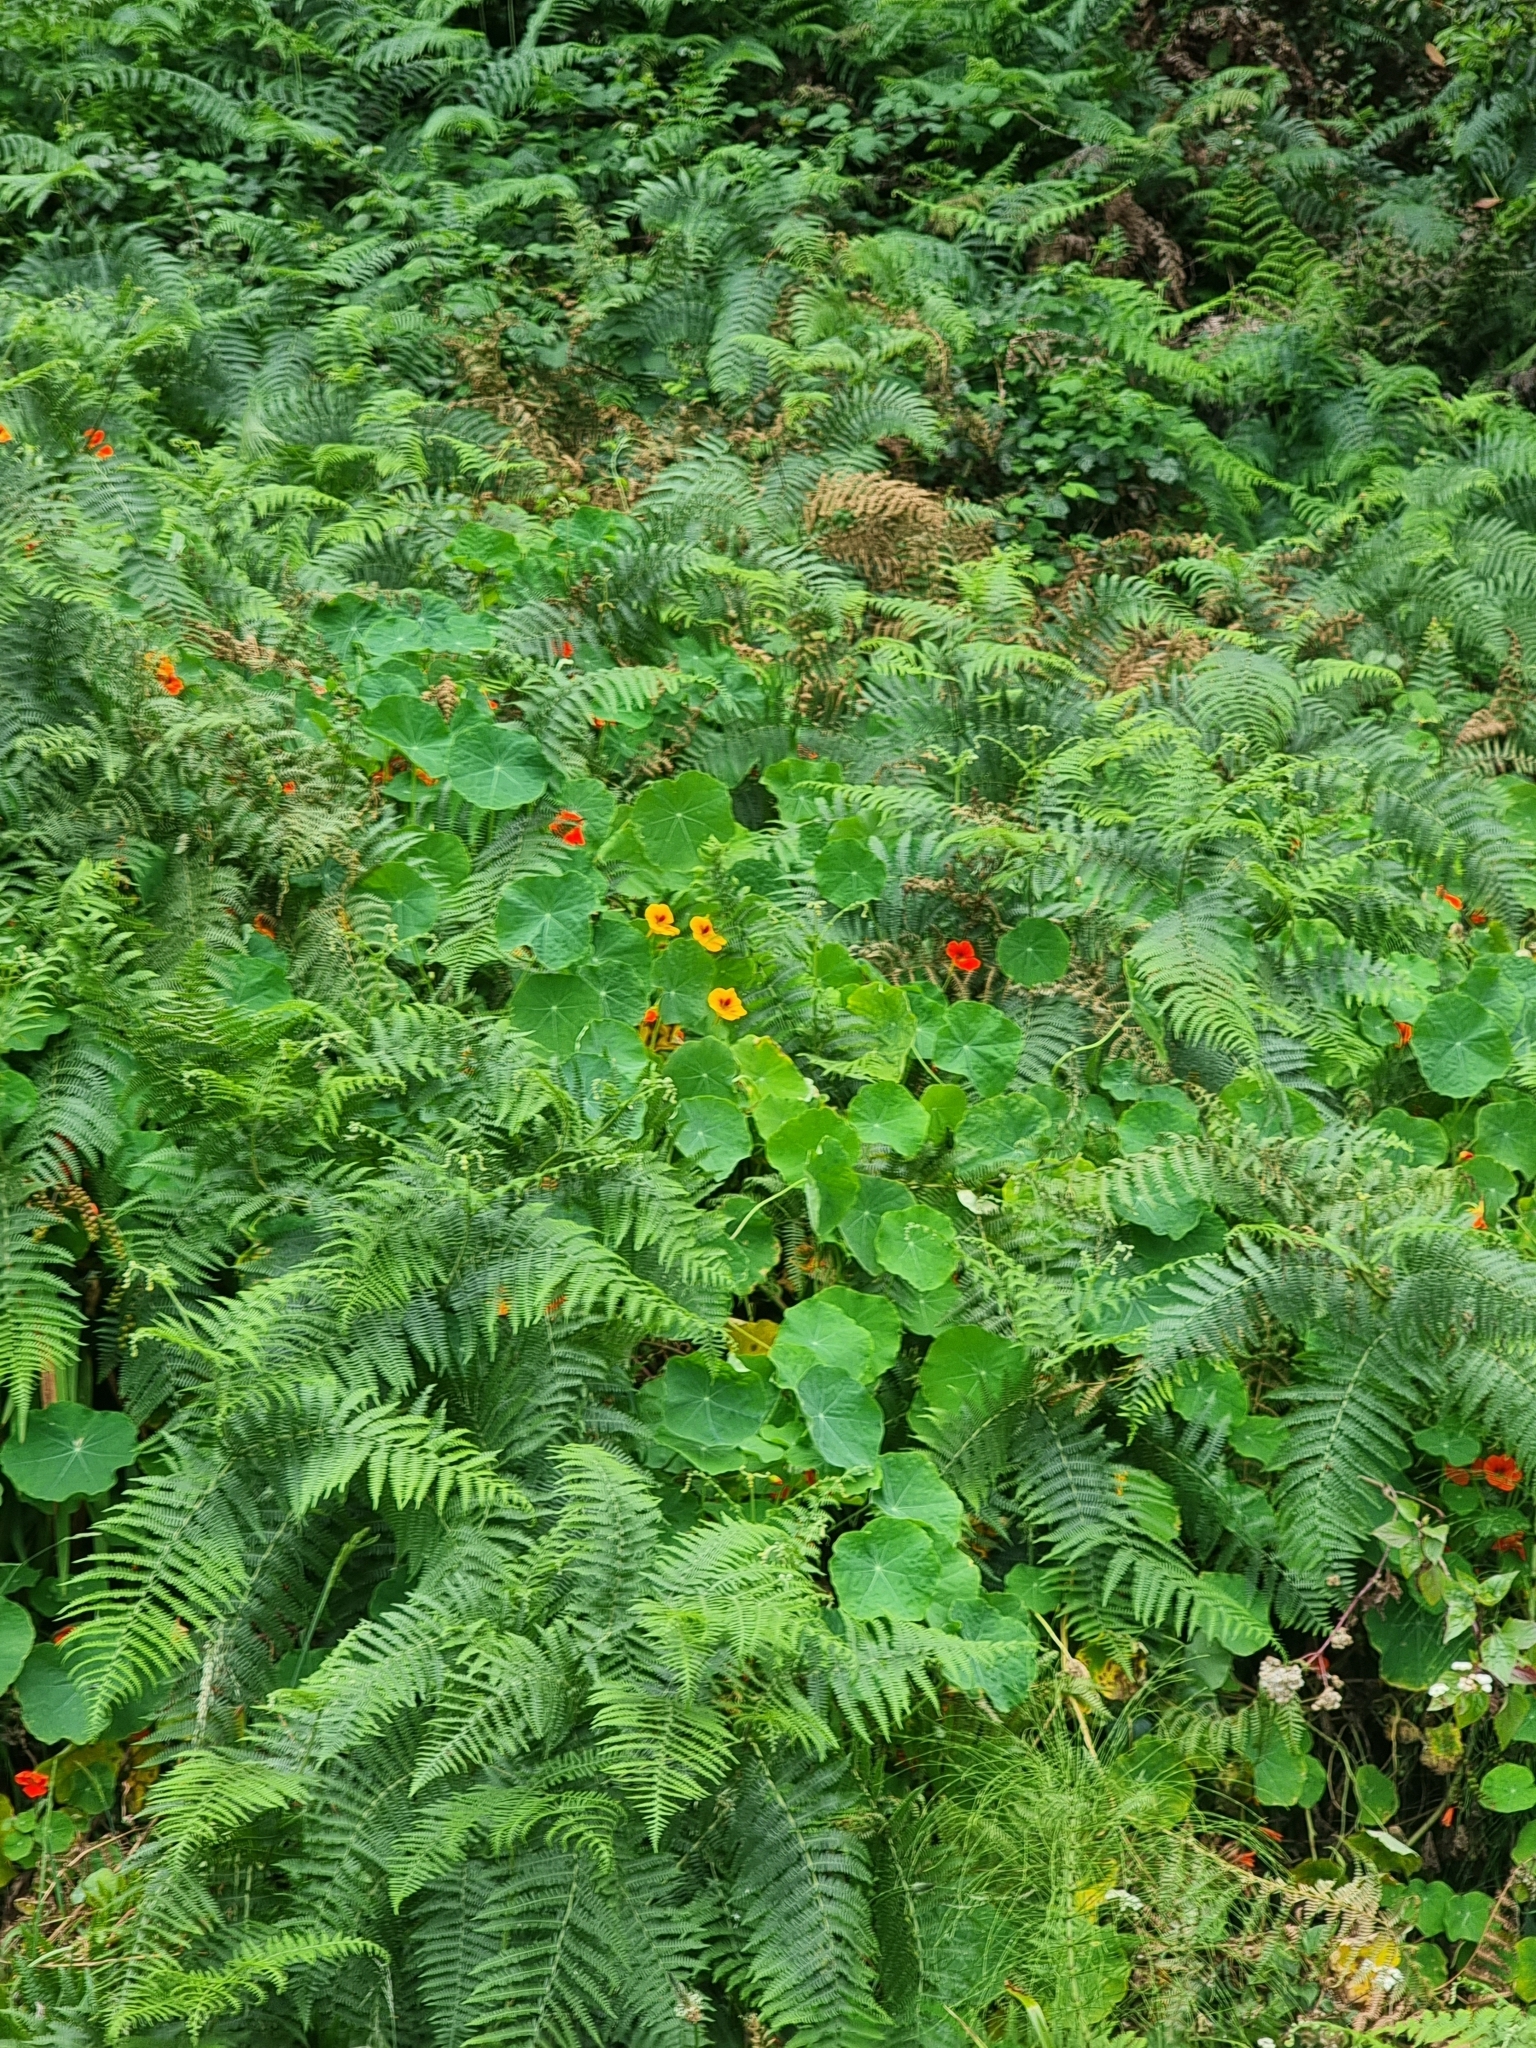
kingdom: Plantae
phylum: Tracheophyta
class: Magnoliopsida
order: Brassicales
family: Tropaeolaceae
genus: Tropaeolum
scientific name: Tropaeolum majus
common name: Nasturtium
